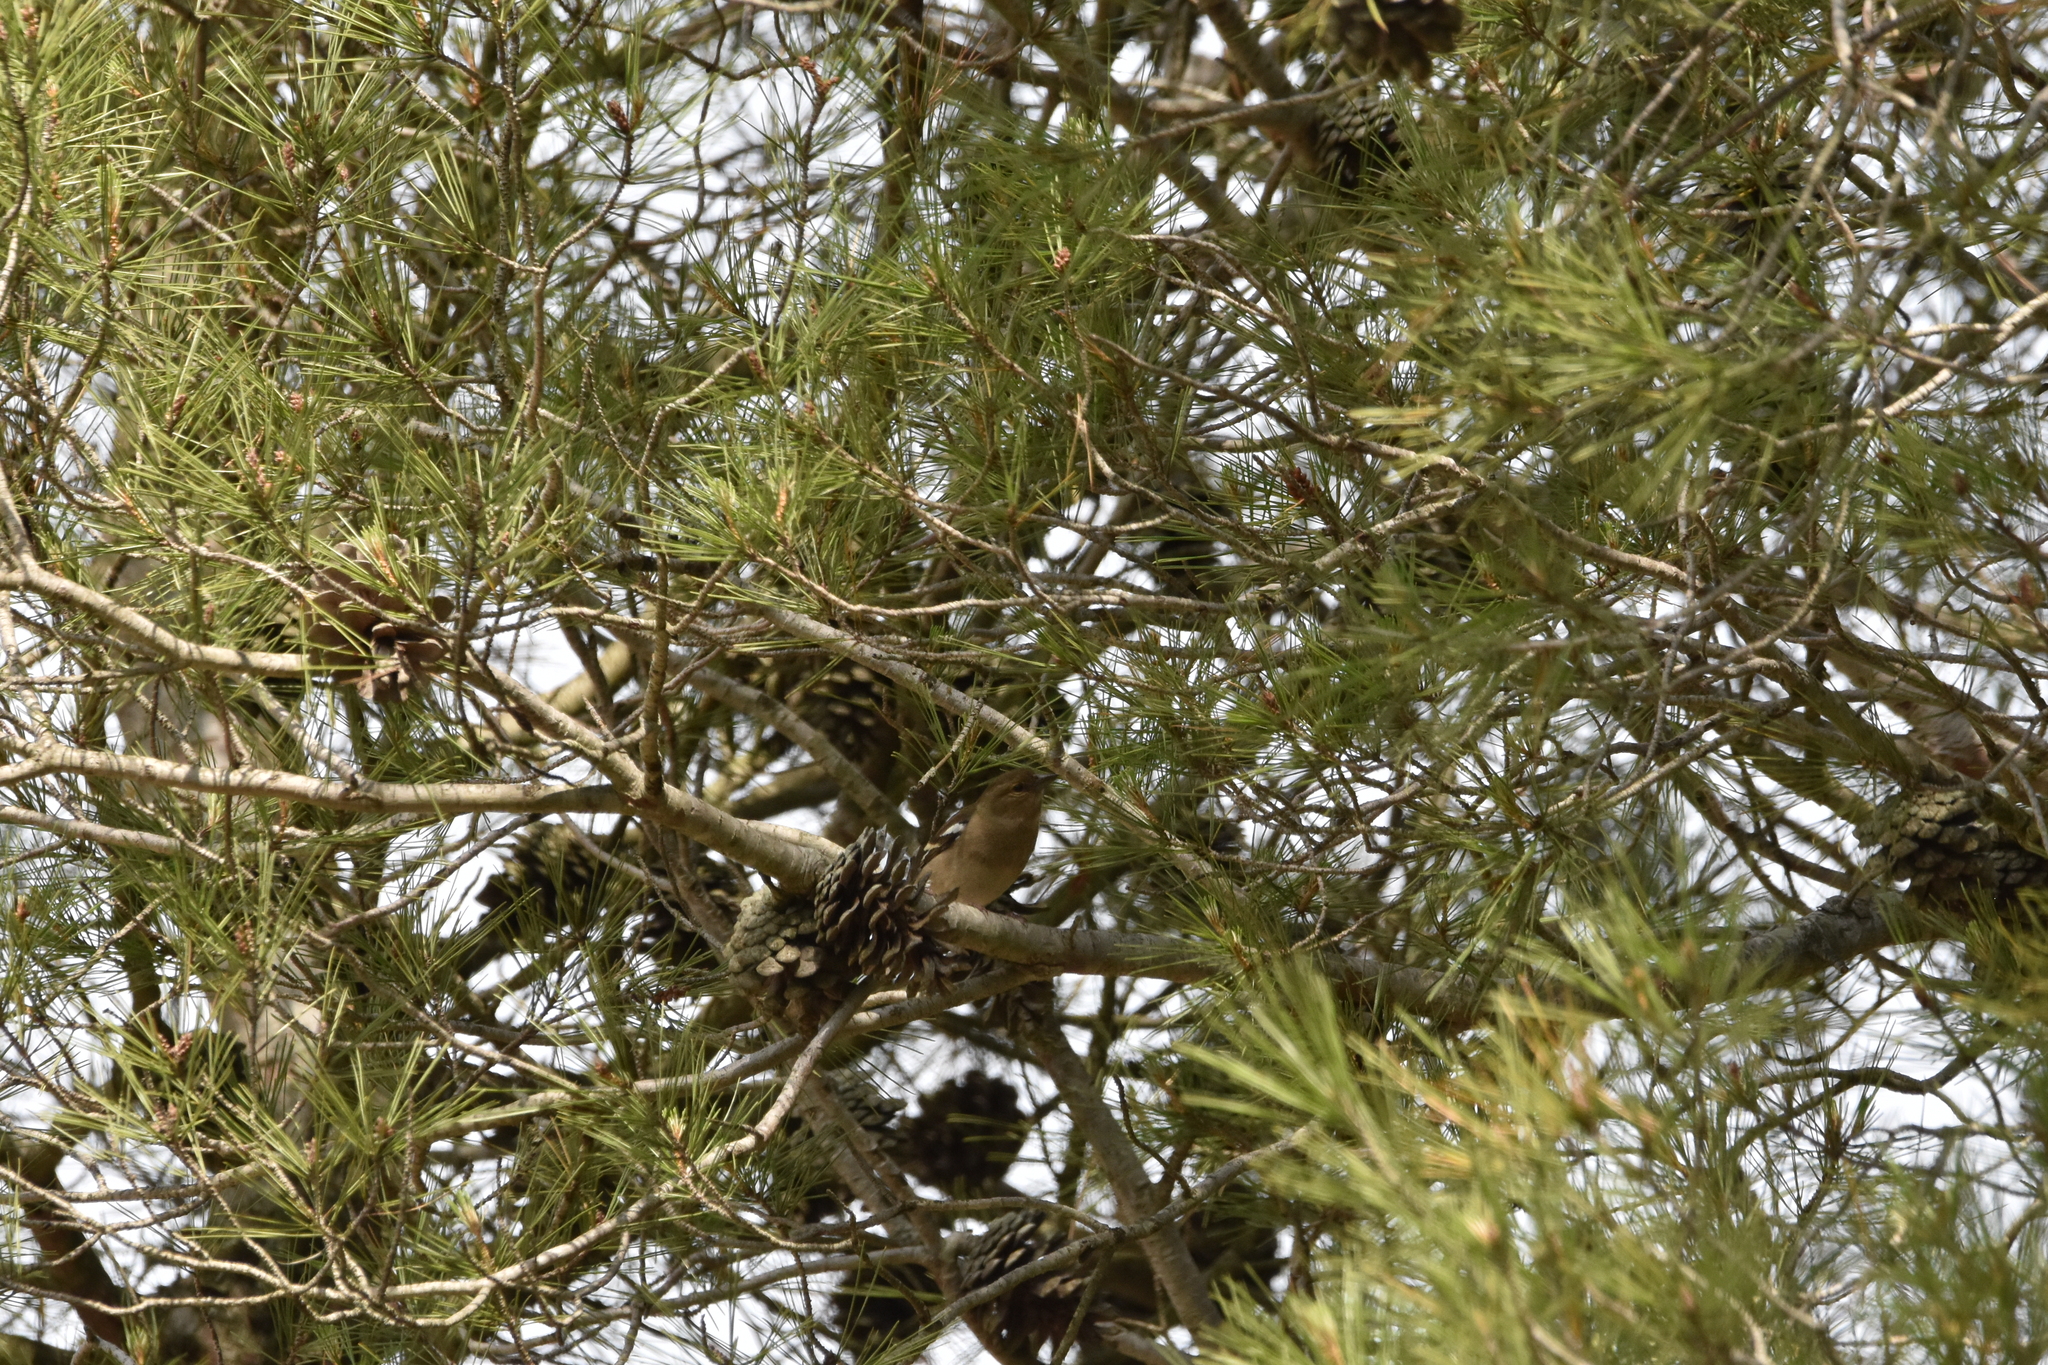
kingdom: Animalia
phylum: Chordata
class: Aves
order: Passeriformes
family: Fringillidae
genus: Fringilla
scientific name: Fringilla coelebs
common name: Common chaffinch
